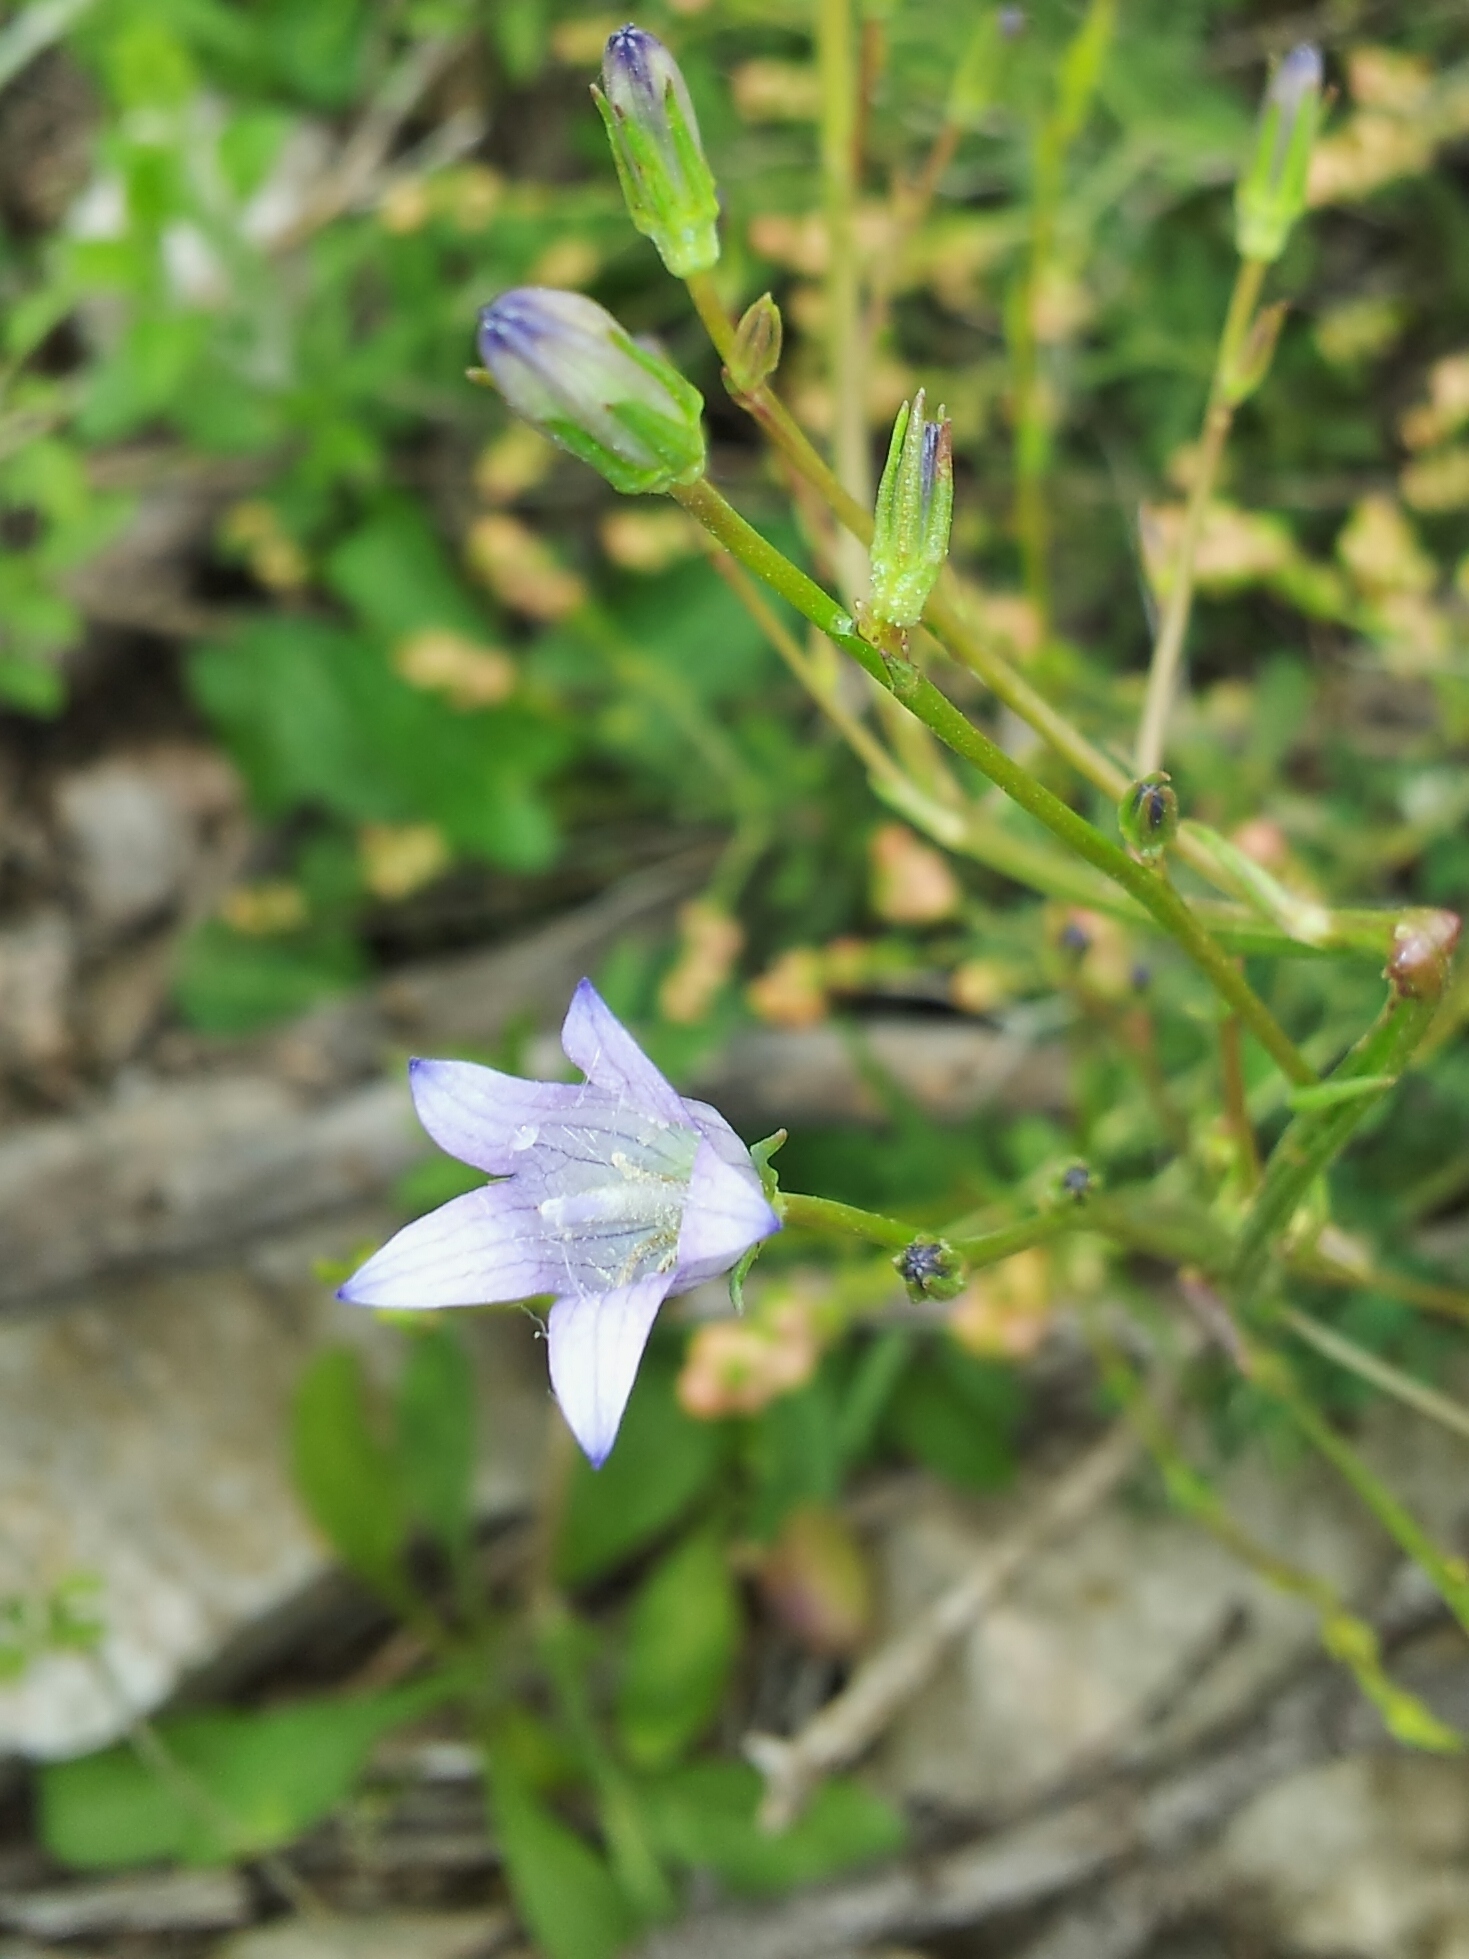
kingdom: Plantae
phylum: Tracheophyta
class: Magnoliopsida
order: Asterales
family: Campanulaceae
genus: Campanula
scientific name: Campanula rapunculus
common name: Rampion bellflower
